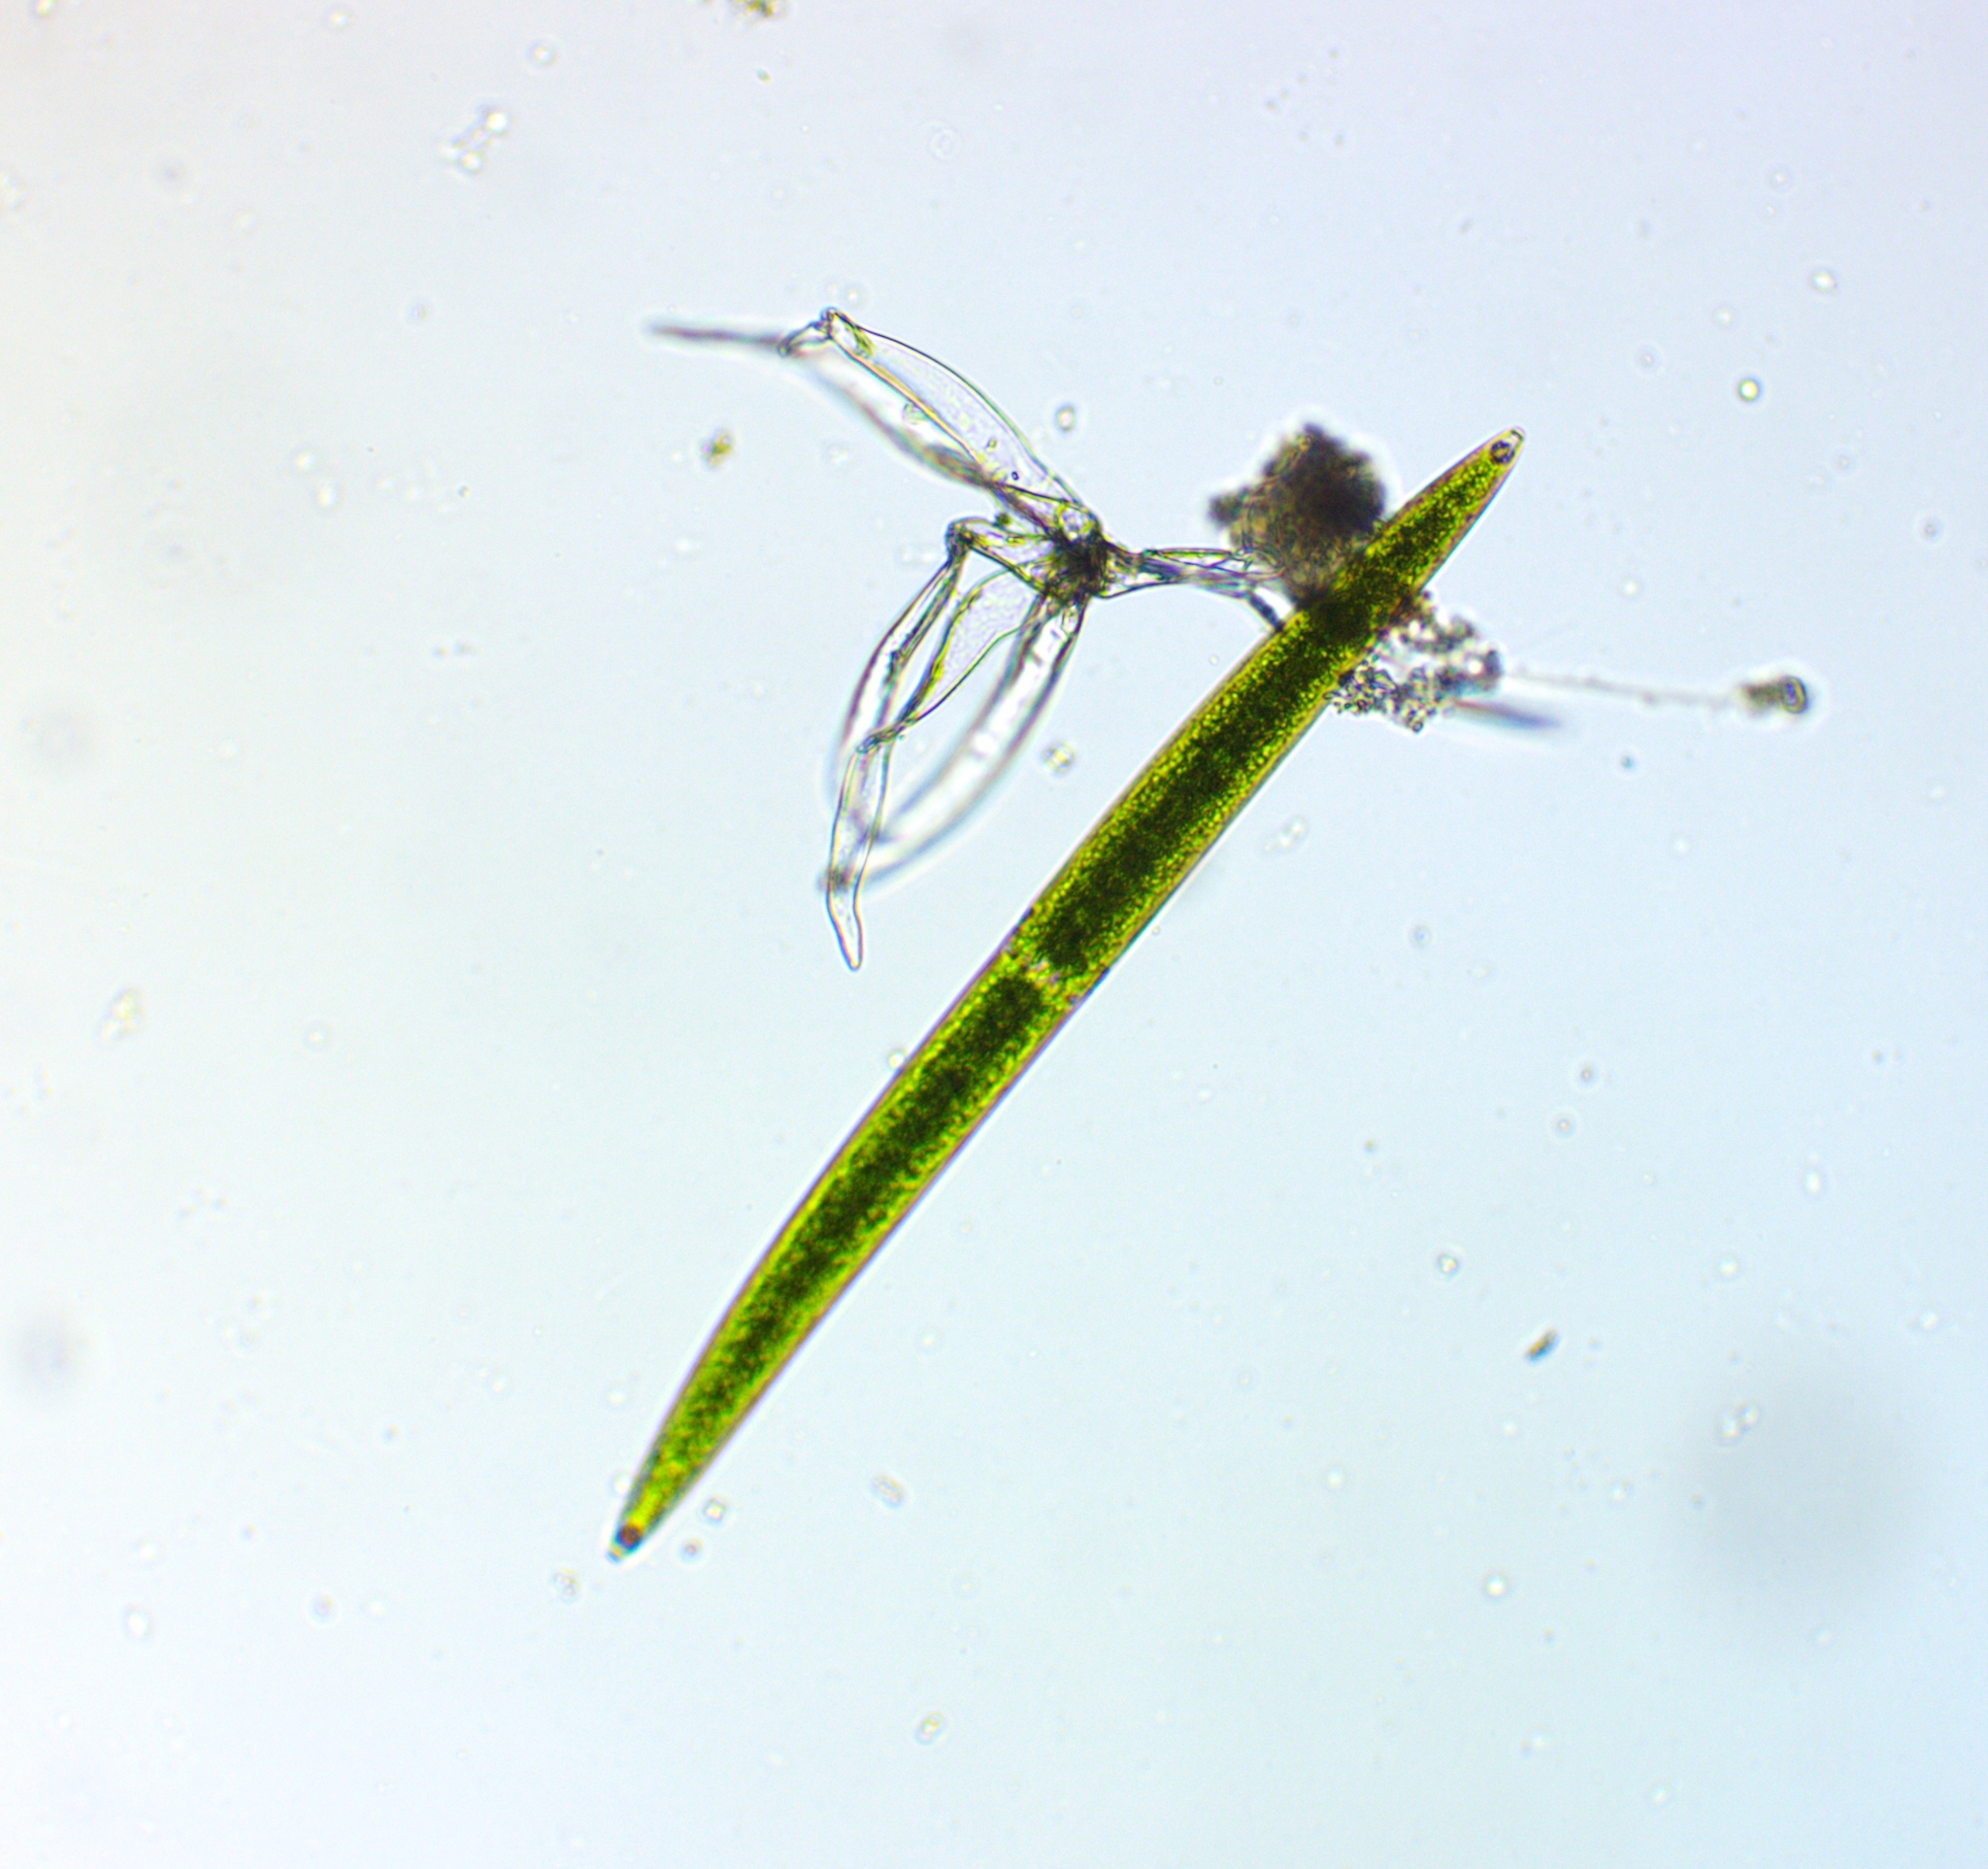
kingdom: Plantae
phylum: Charophyta
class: Zygnematophyceae
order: Zygnematales
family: Closteriaceae
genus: Closterium
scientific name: Closterium acerosum
